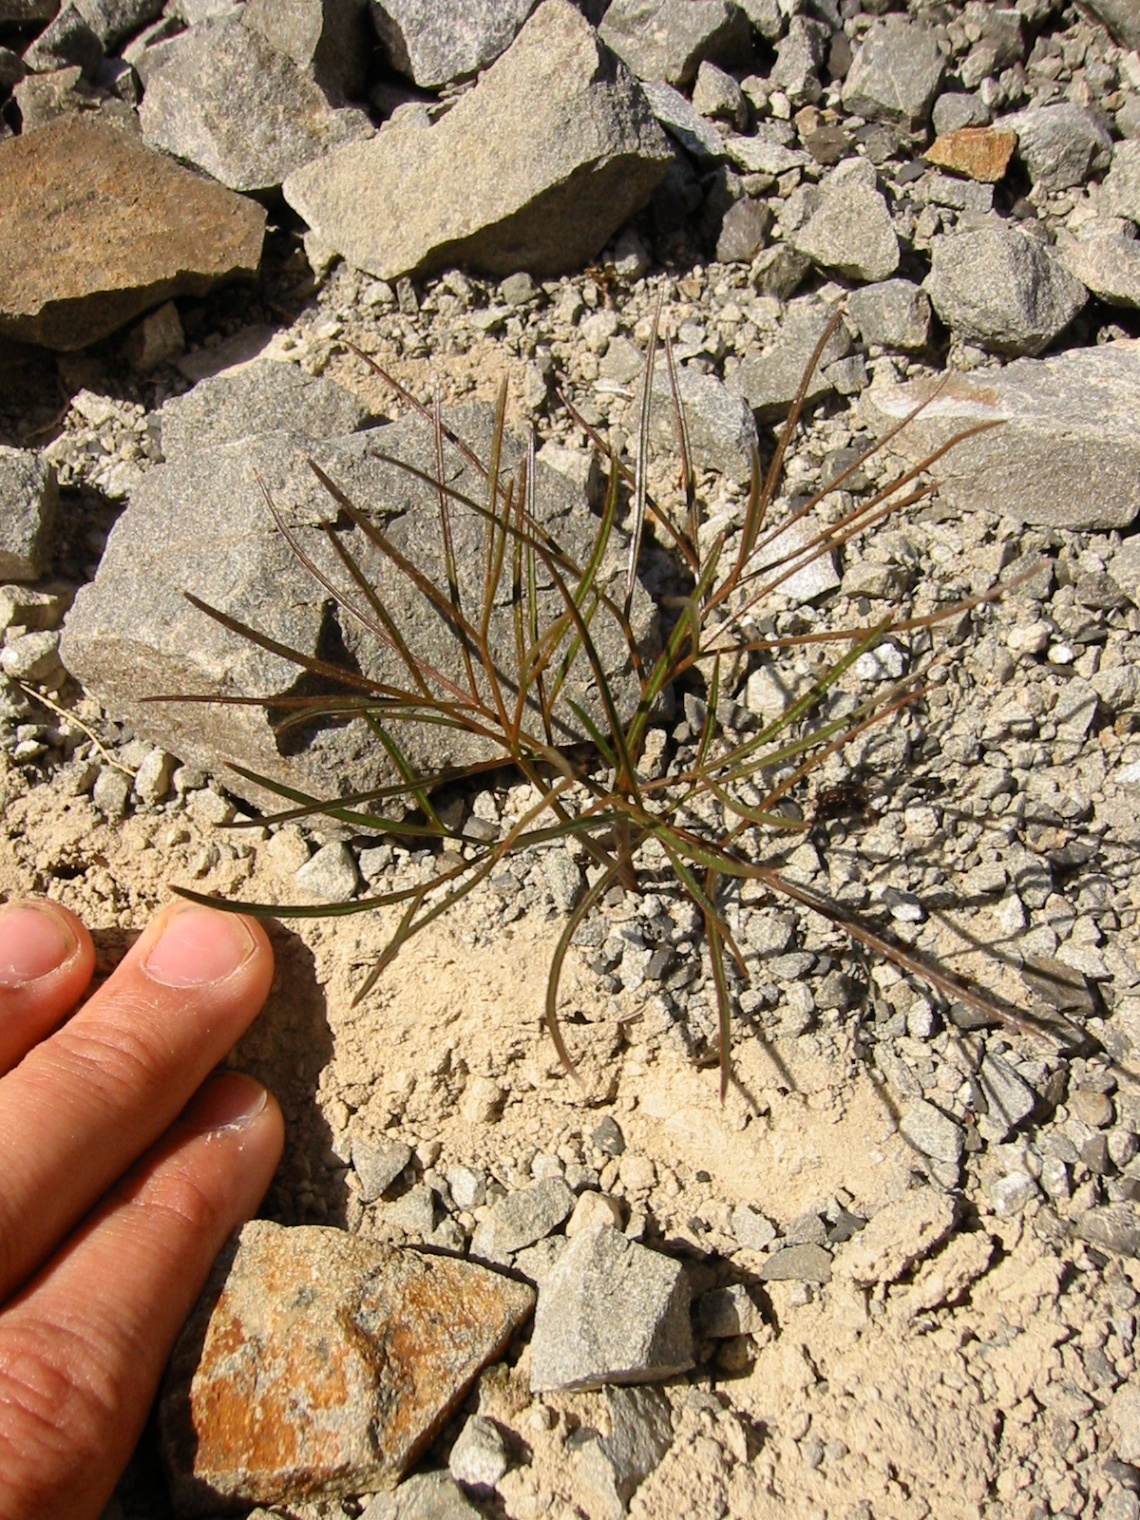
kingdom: Plantae
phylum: Tracheophyta
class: Magnoliopsida
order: Apiales
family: Apiaceae
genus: Anisotome
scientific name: Anisotome filifolia
